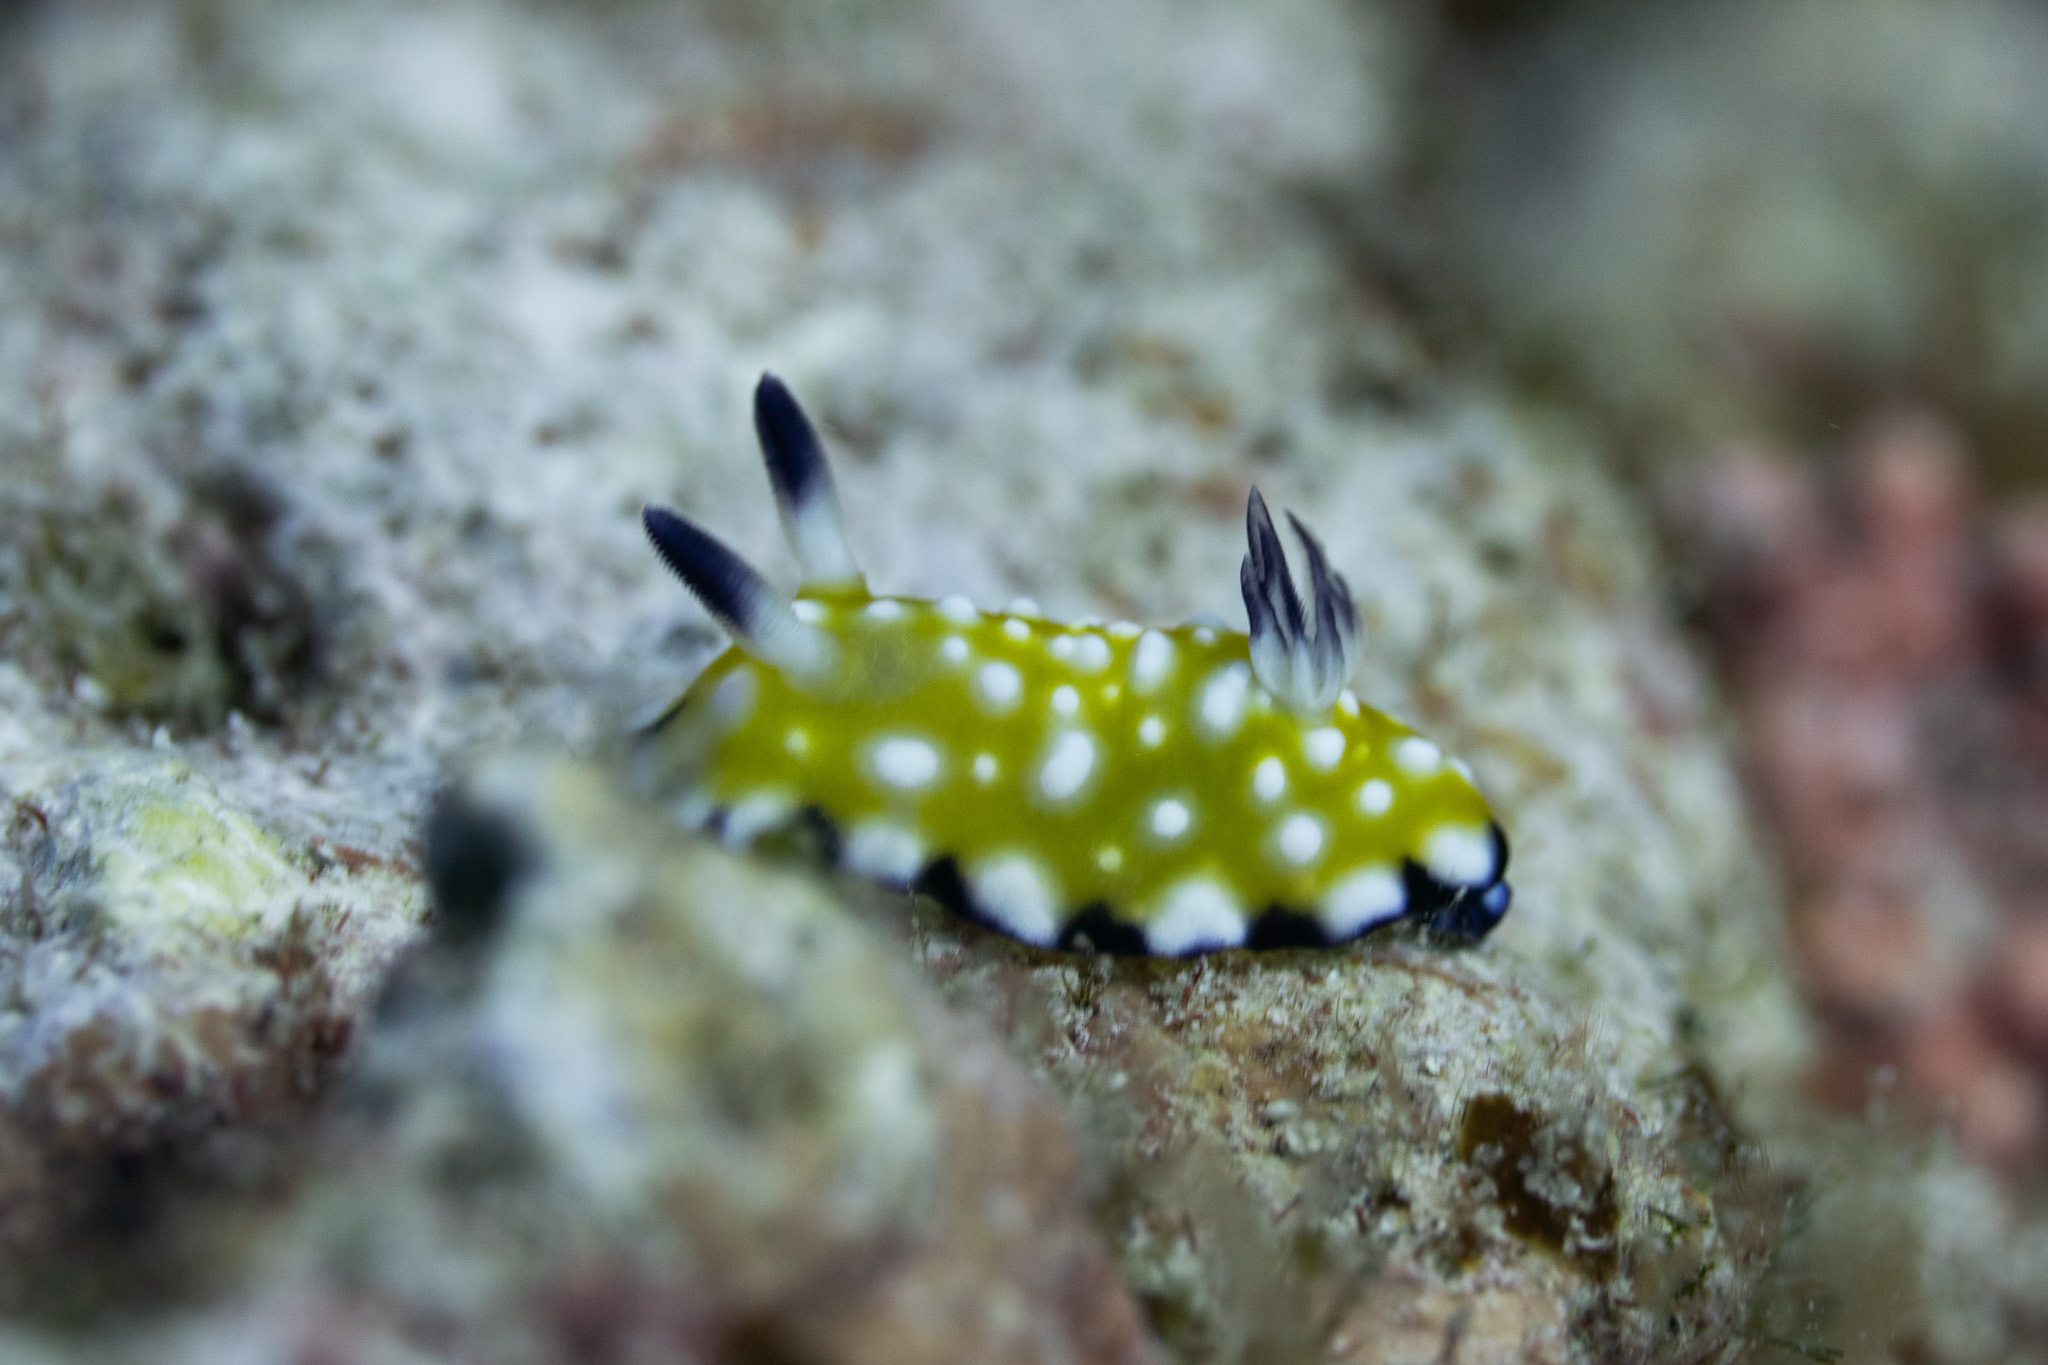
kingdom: Animalia
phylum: Mollusca
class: Gastropoda
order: Nudibranchia
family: Chromodorididae
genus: Goniobranchus
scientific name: Goniobranchus vibratus
